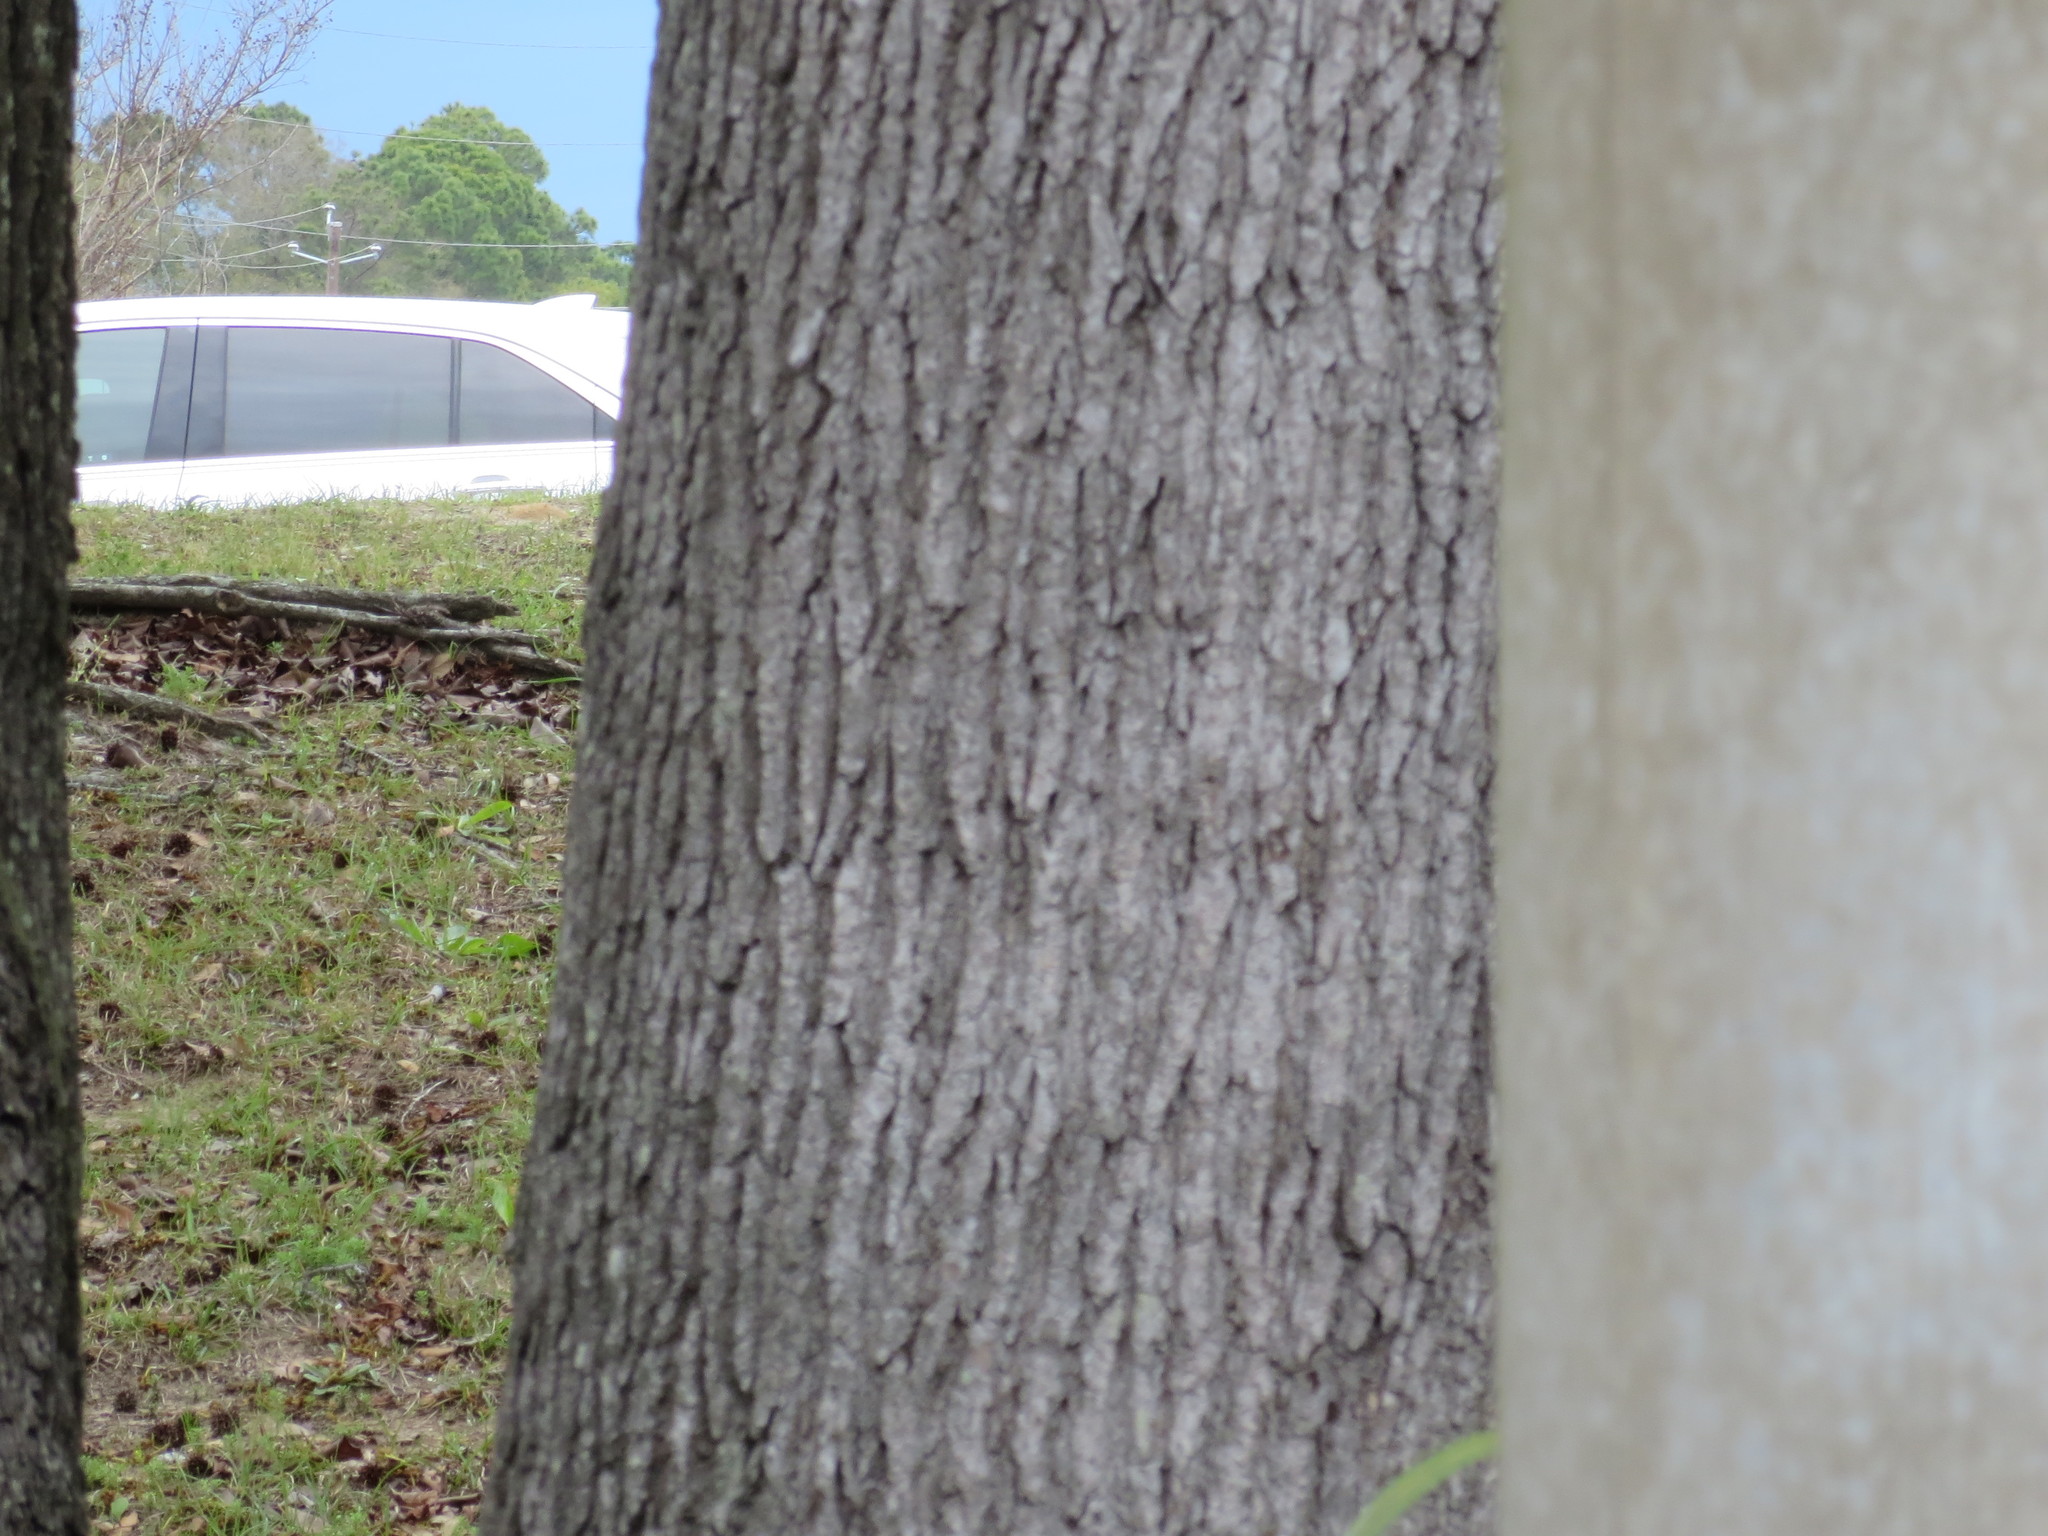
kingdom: Plantae
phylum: Tracheophyta
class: Magnoliopsida
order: Saxifragales
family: Altingiaceae
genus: Liquidambar
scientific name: Liquidambar styraciflua
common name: Sweet gum
